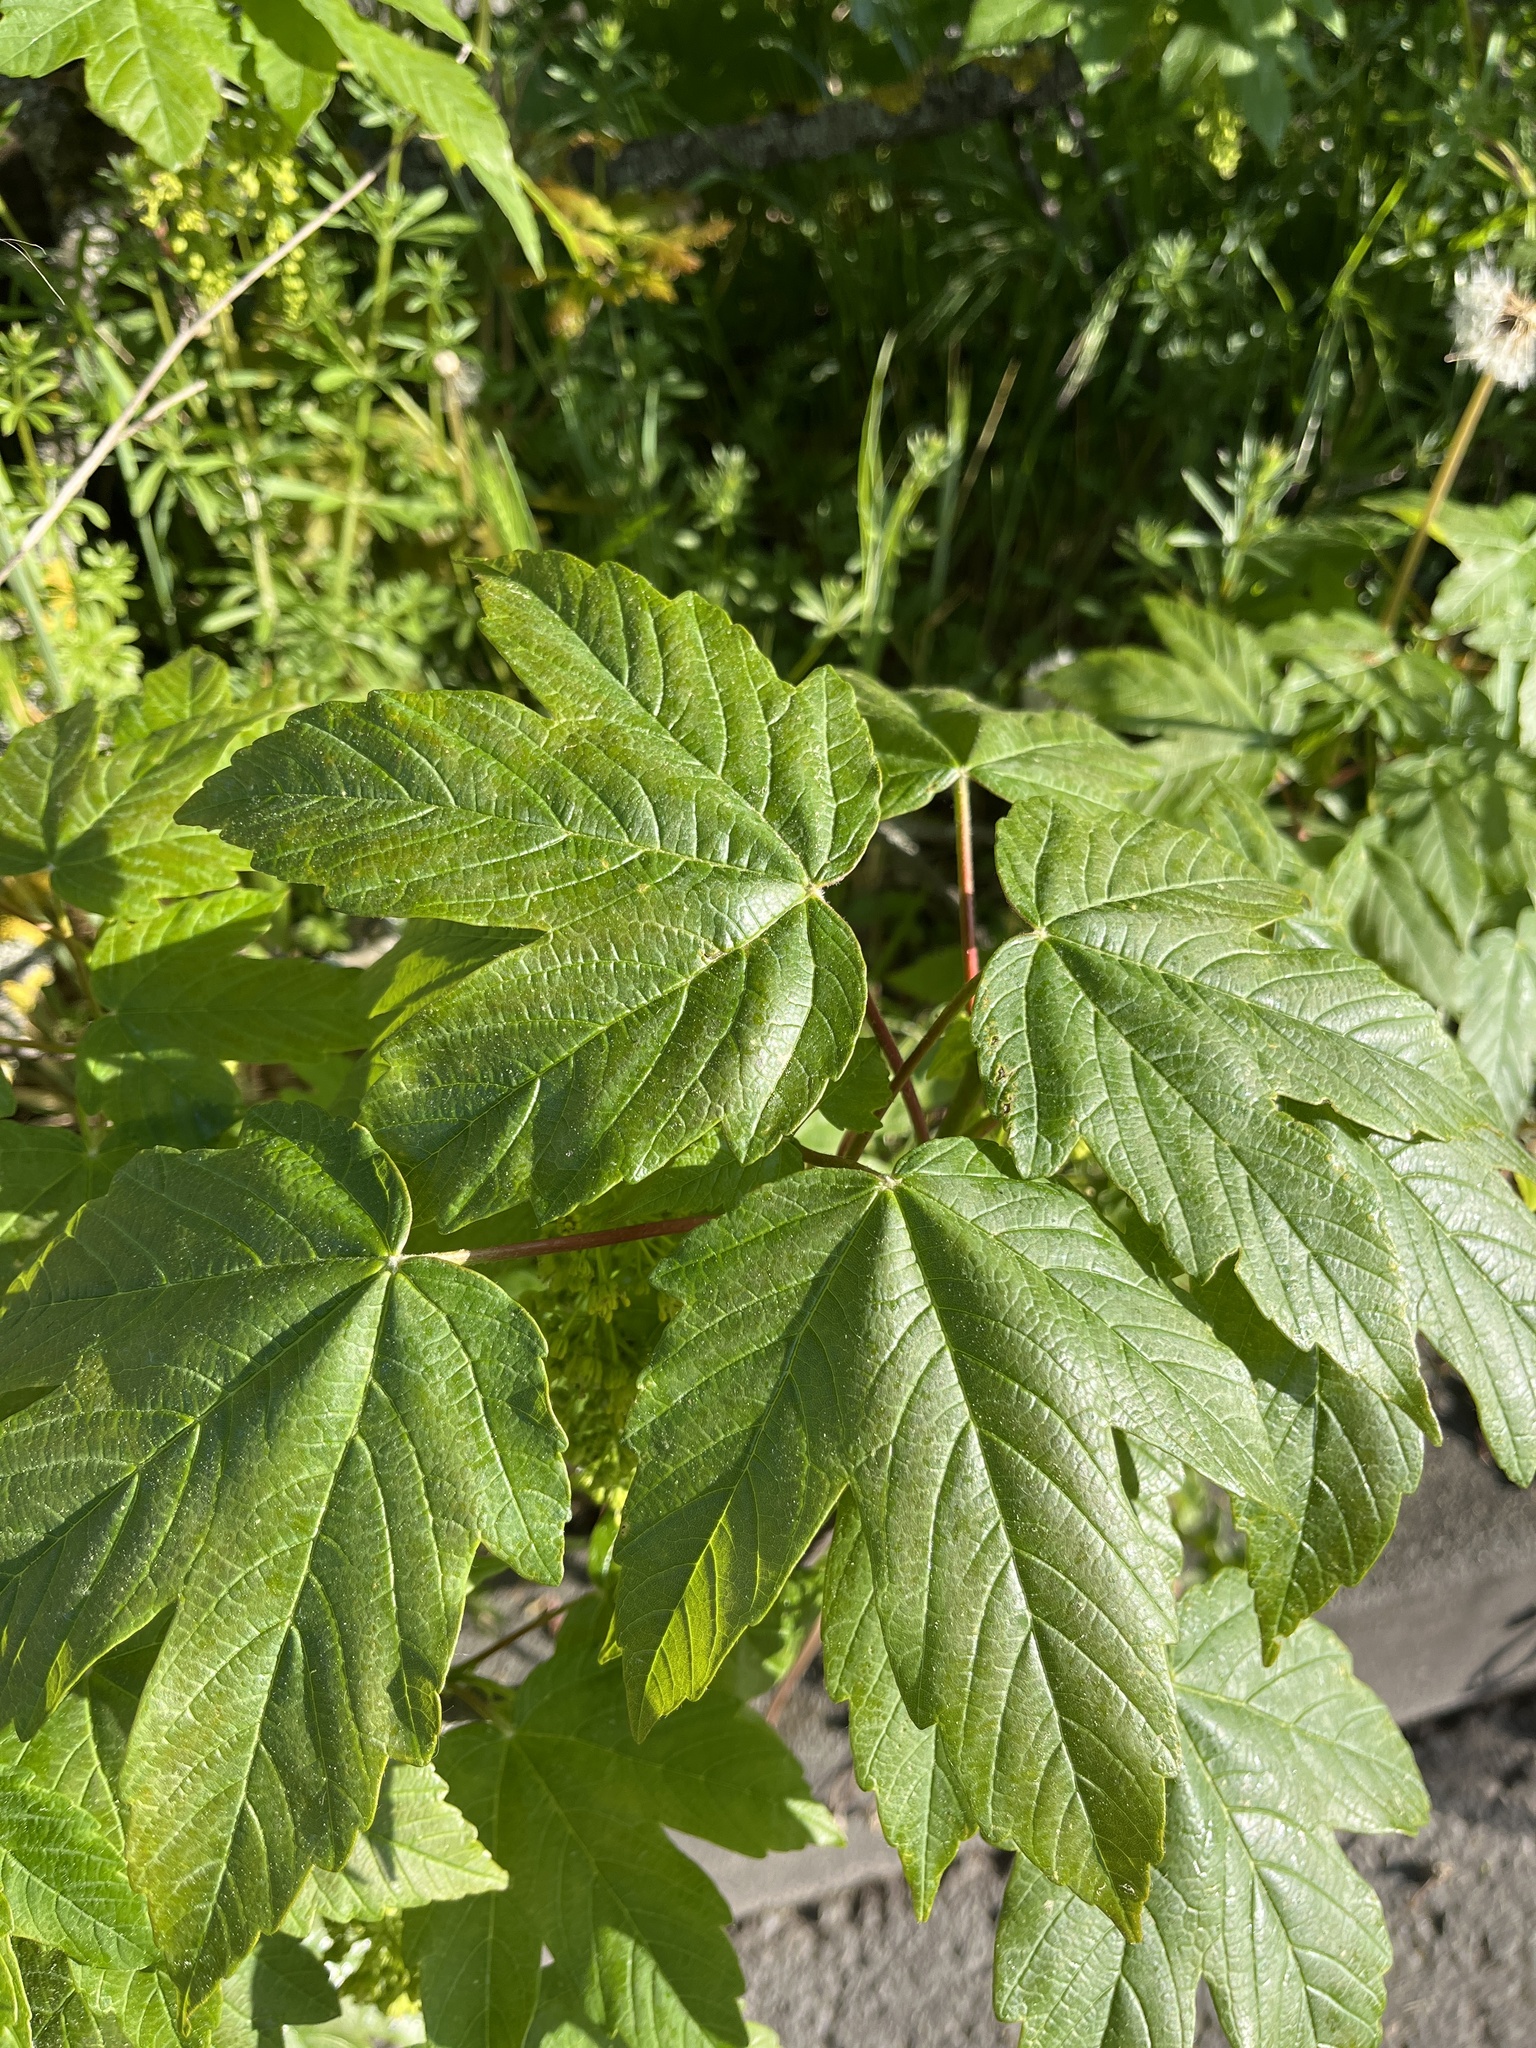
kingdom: Plantae
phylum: Tracheophyta
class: Magnoliopsida
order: Sapindales
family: Sapindaceae
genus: Acer
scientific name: Acer pseudoplatanus
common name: Sycamore
